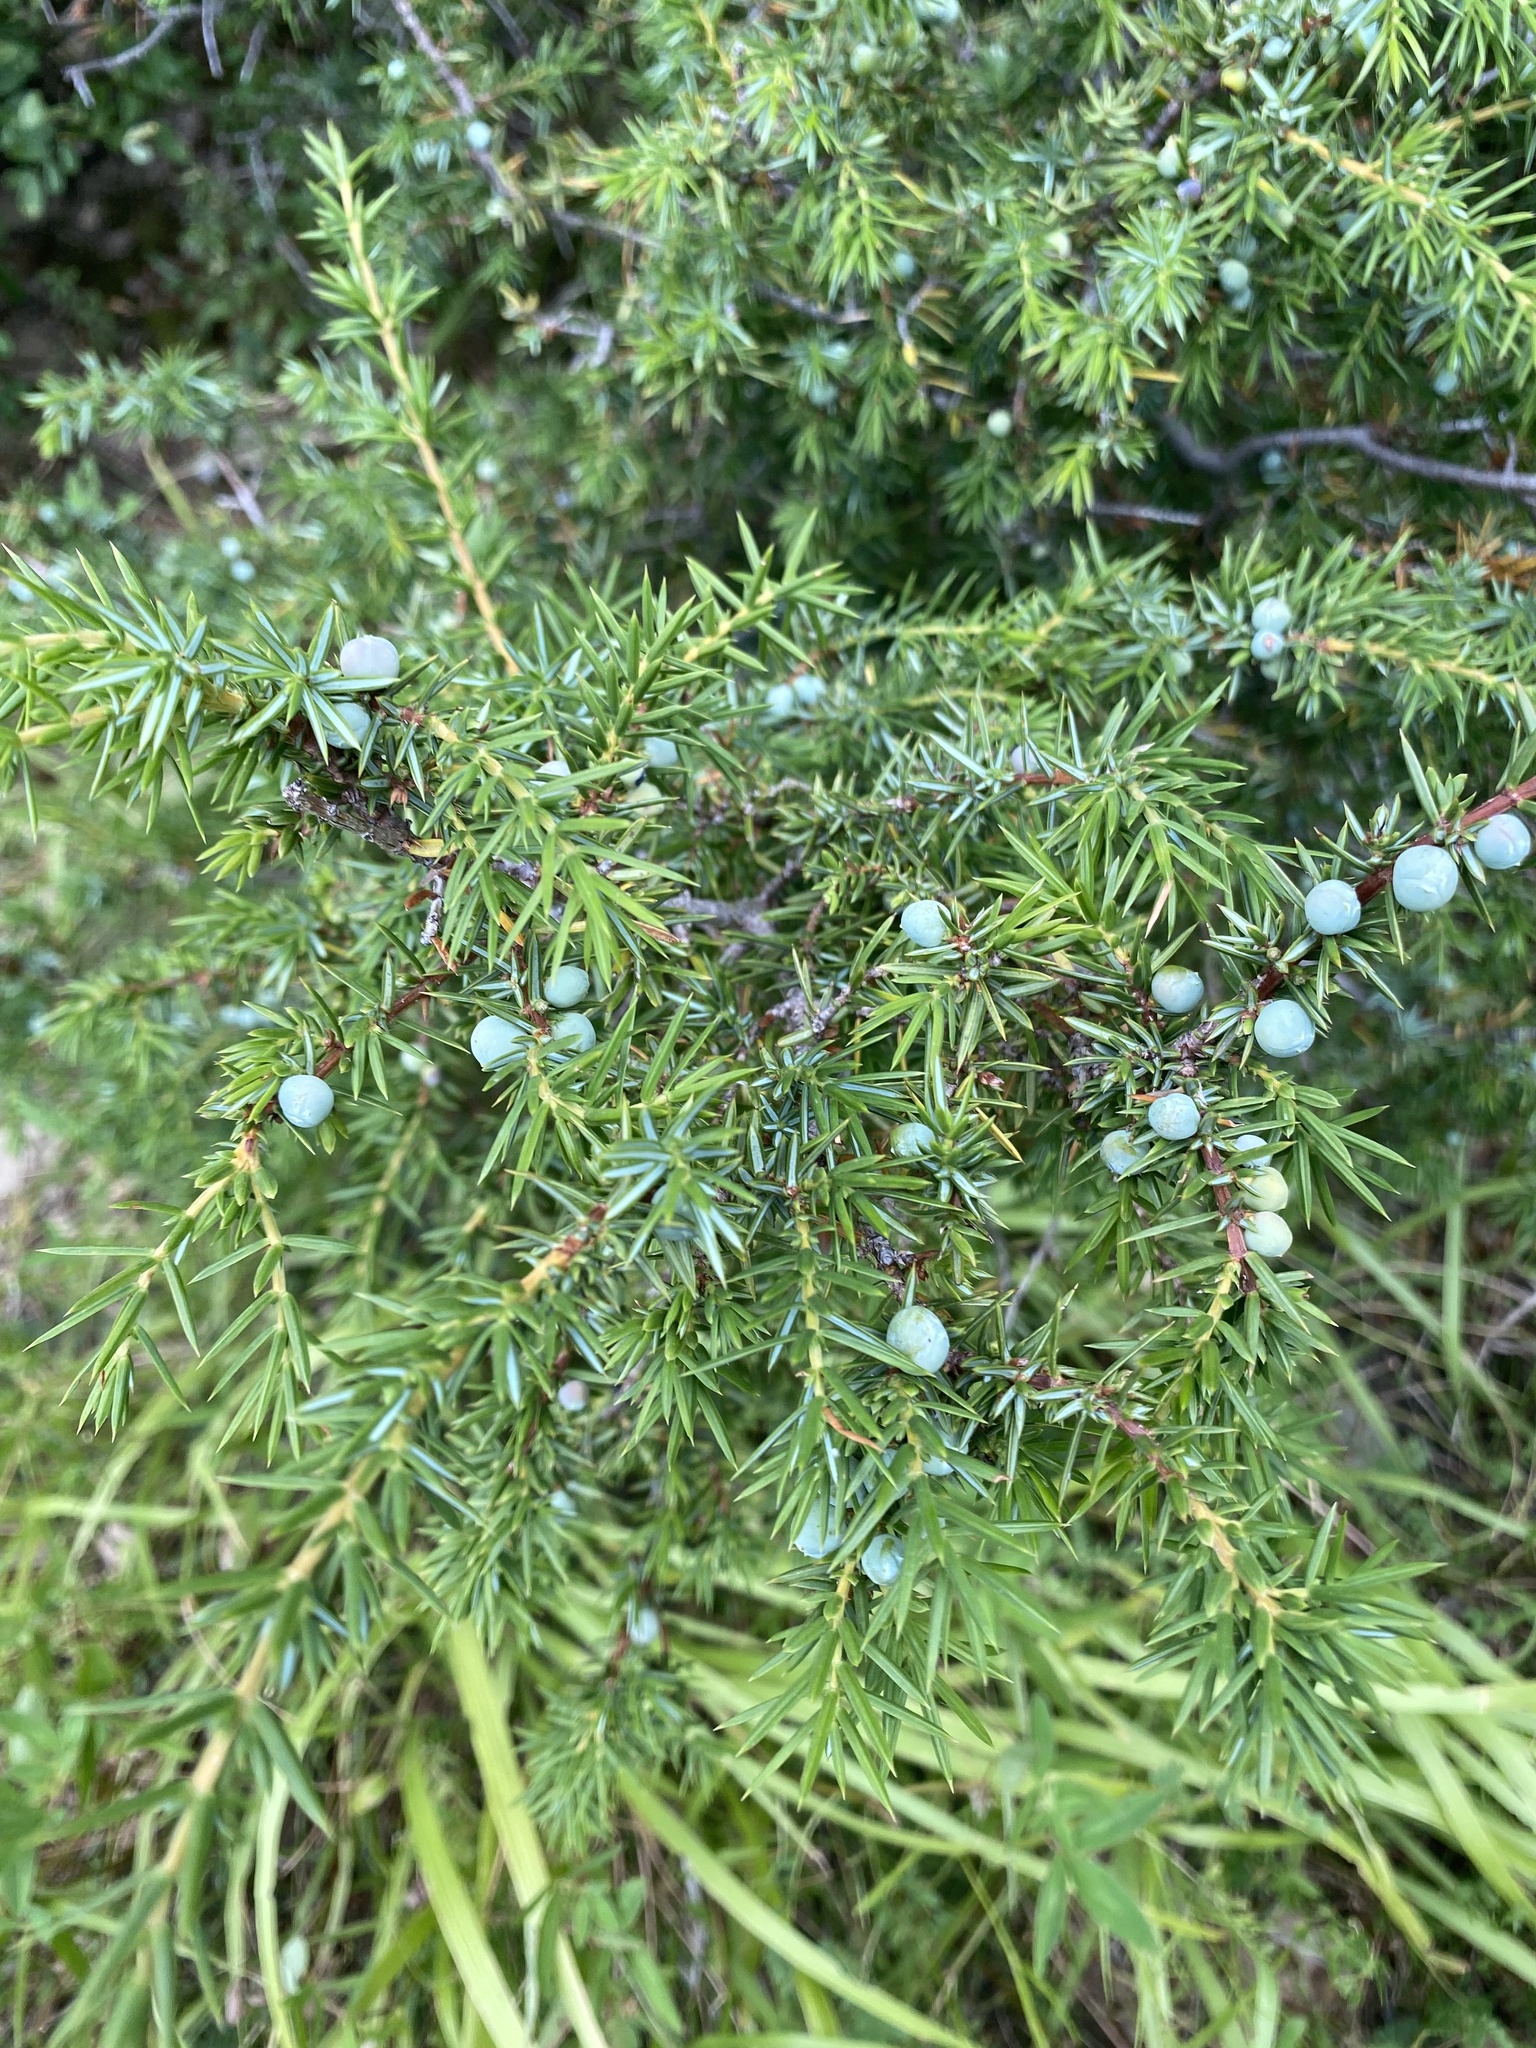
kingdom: Plantae
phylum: Tracheophyta
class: Pinopsida
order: Pinales
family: Cupressaceae
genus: Juniperus
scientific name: Juniperus communis
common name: Common juniper
